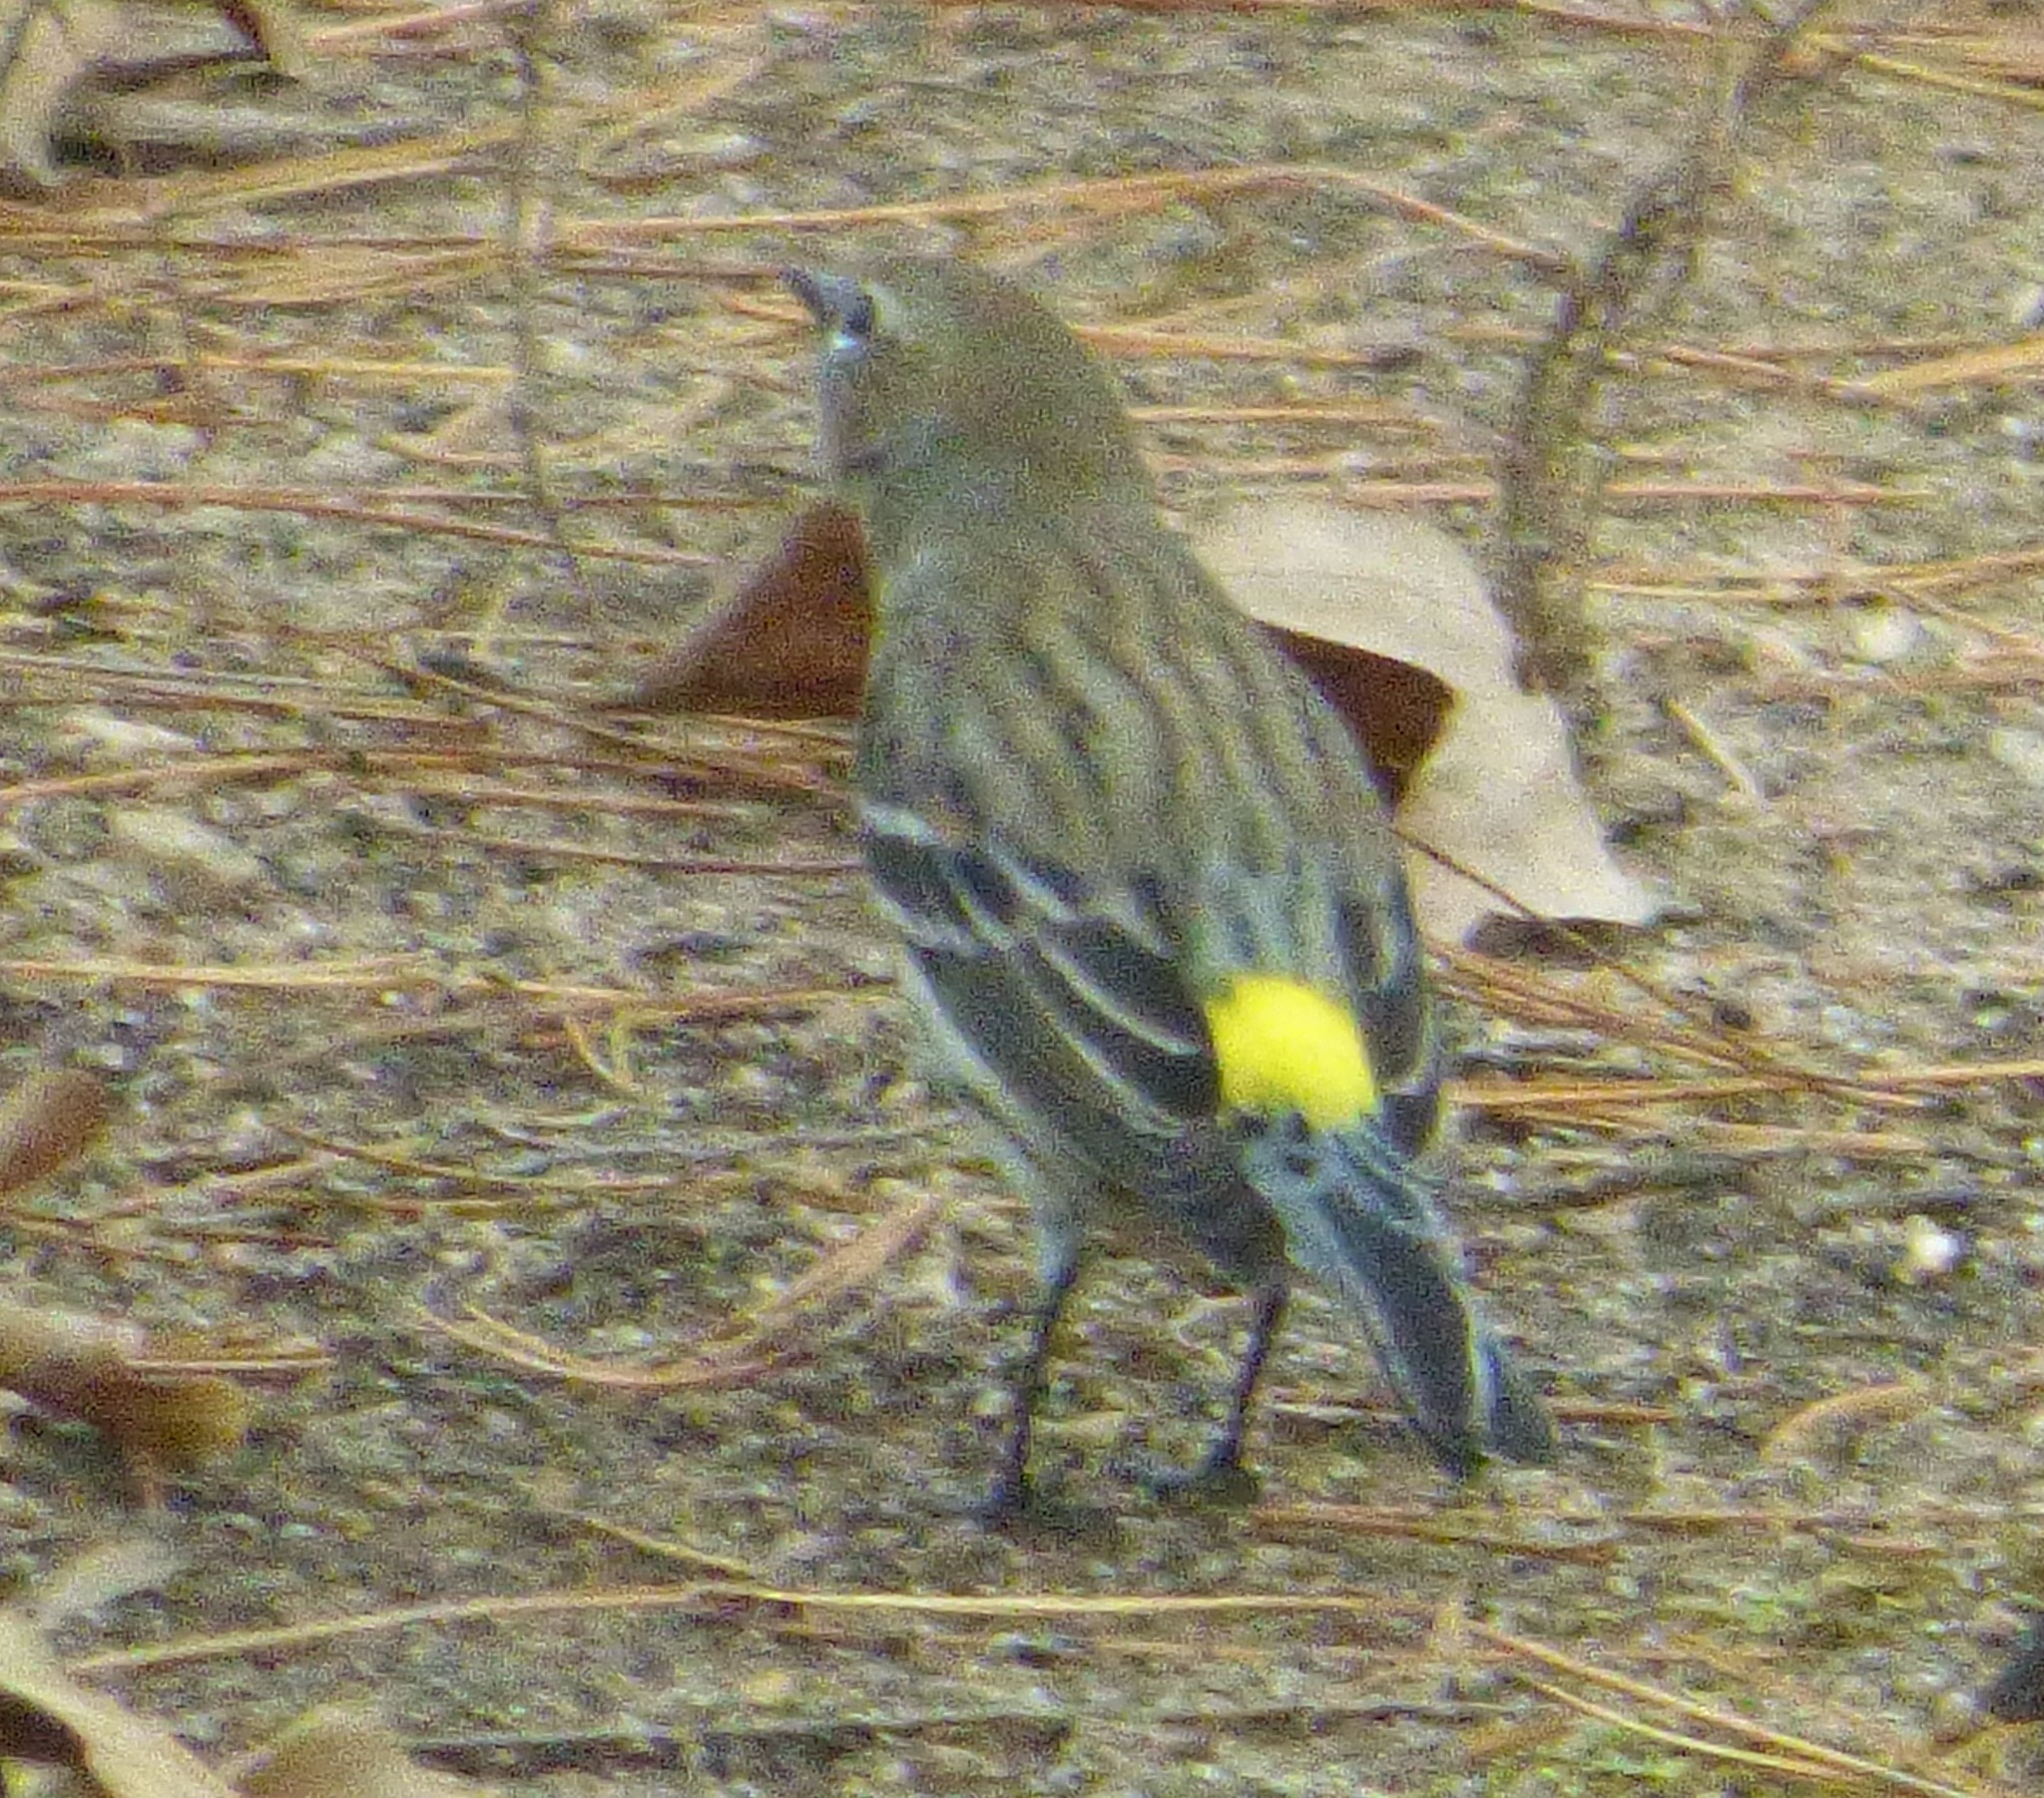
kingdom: Animalia
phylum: Chordata
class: Aves
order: Passeriformes
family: Parulidae
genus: Setophaga
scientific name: Setophaga coronata
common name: Myrtle warbler
